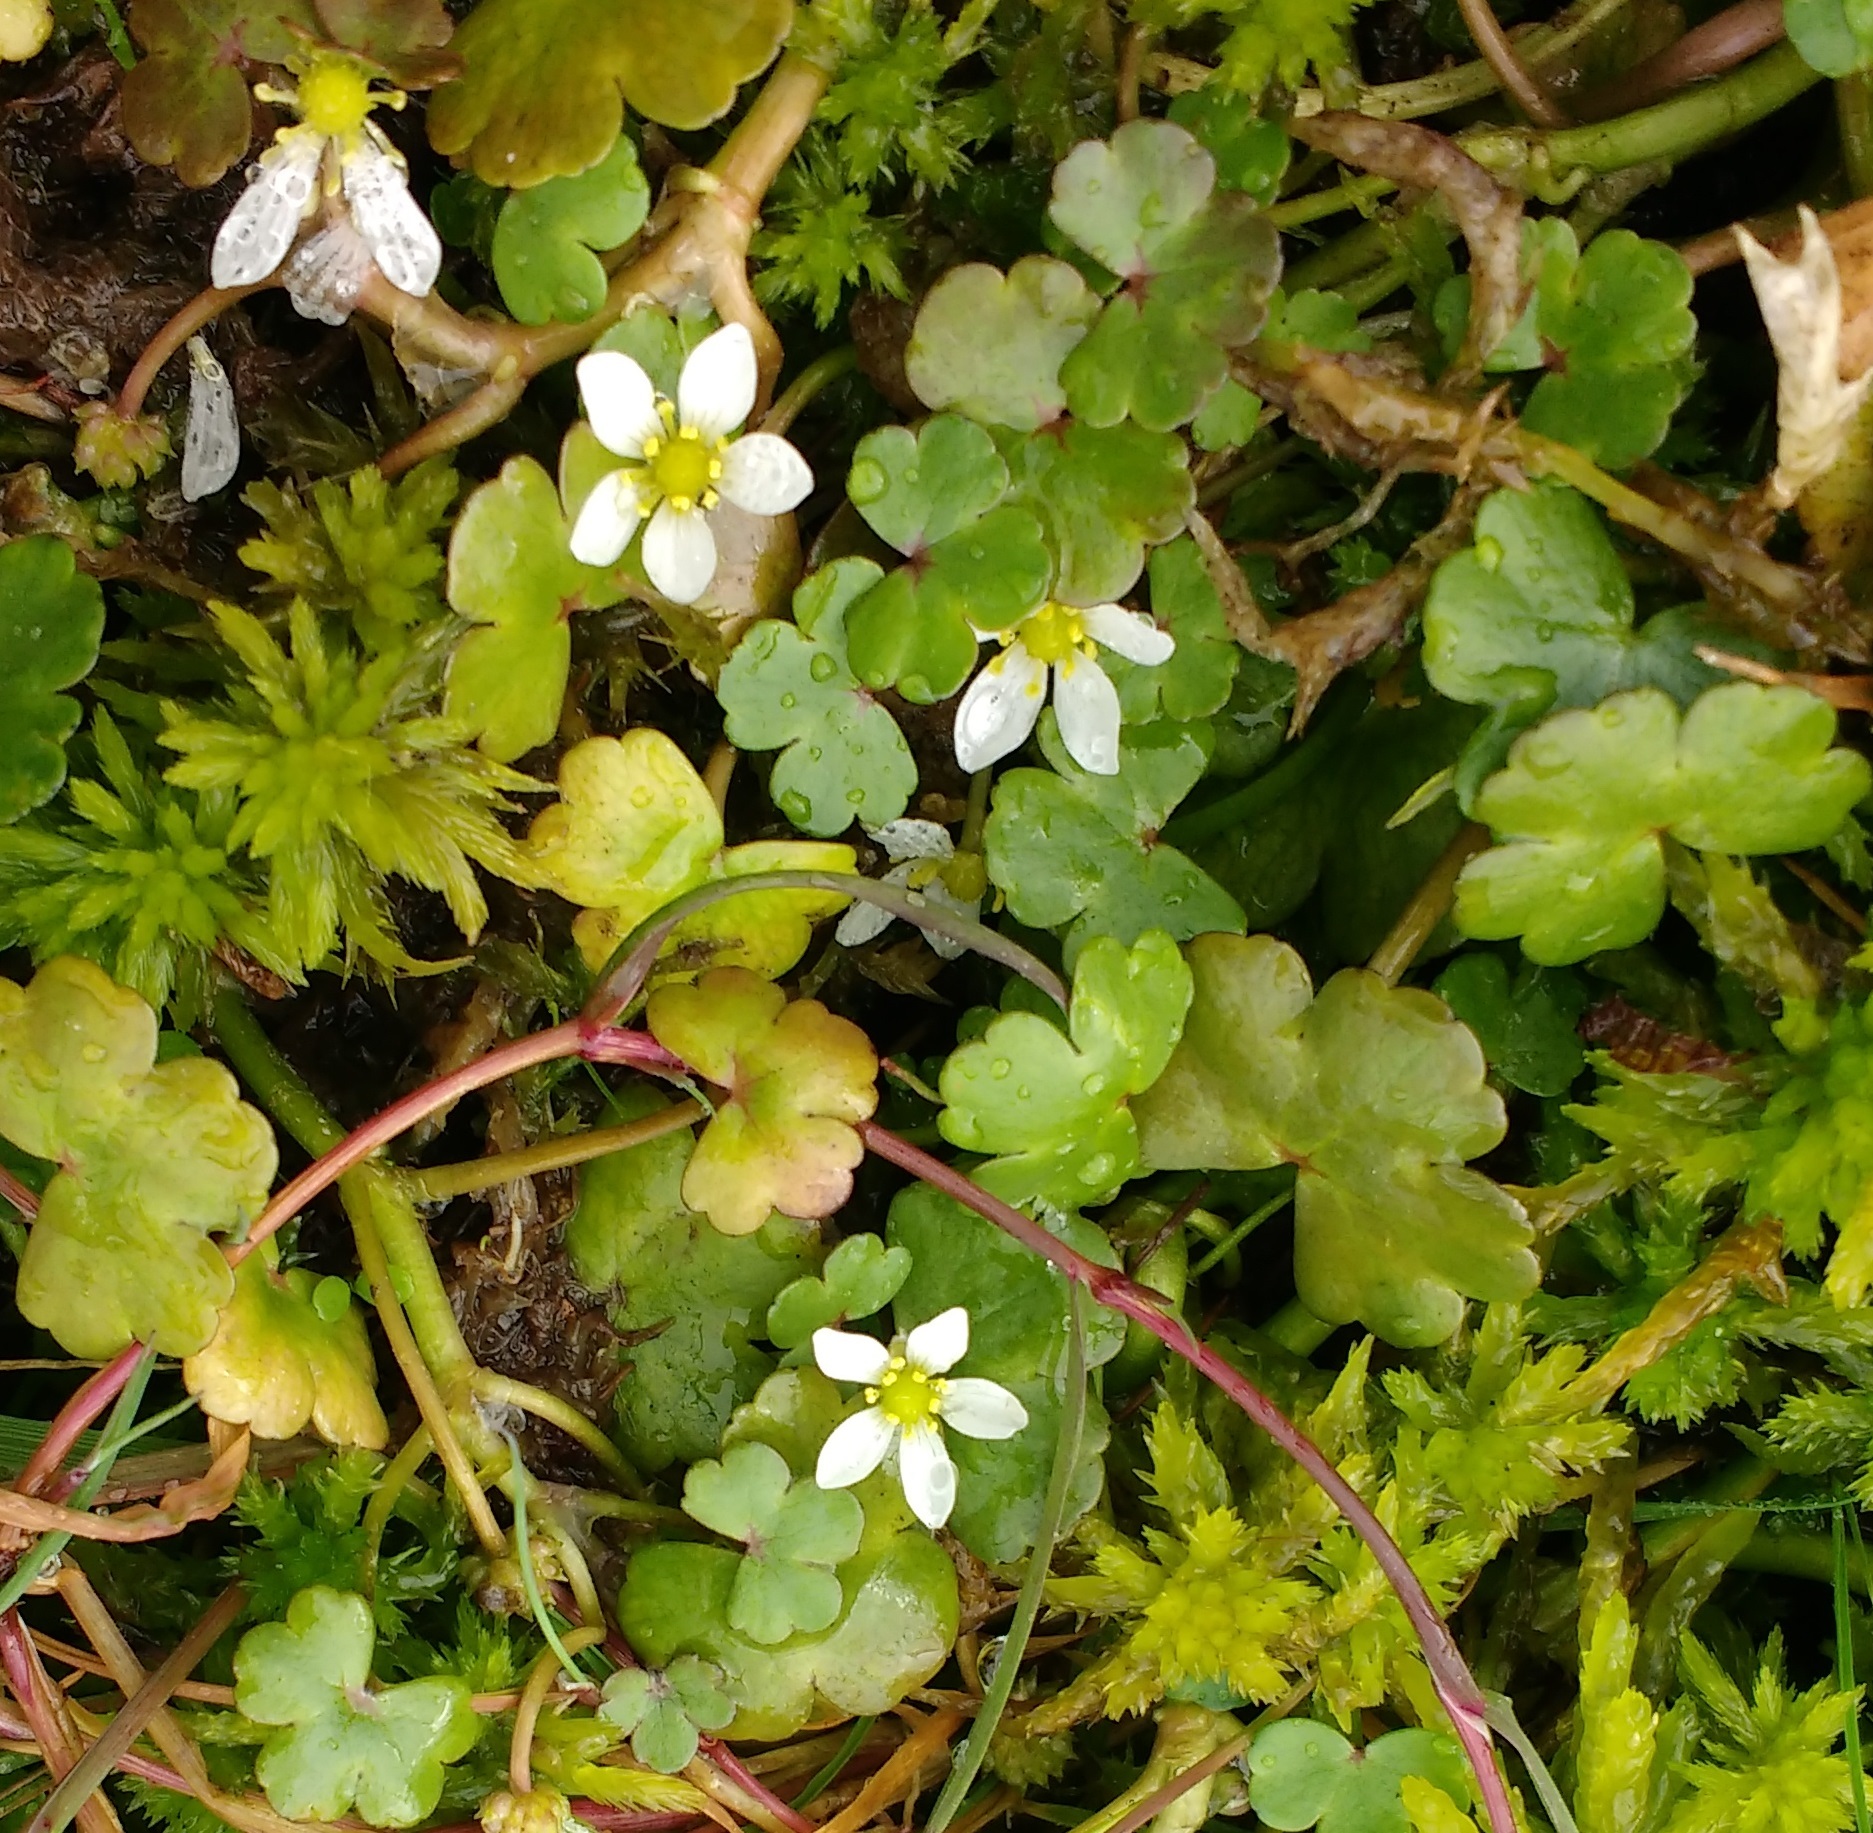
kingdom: Plantae
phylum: Tracheophyta
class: Magnoliopsida
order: Ranunculales
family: Ranunculaceae
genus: Ranunculus
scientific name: Ranunculus omiophyllus
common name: Round-leaved crowfoot
